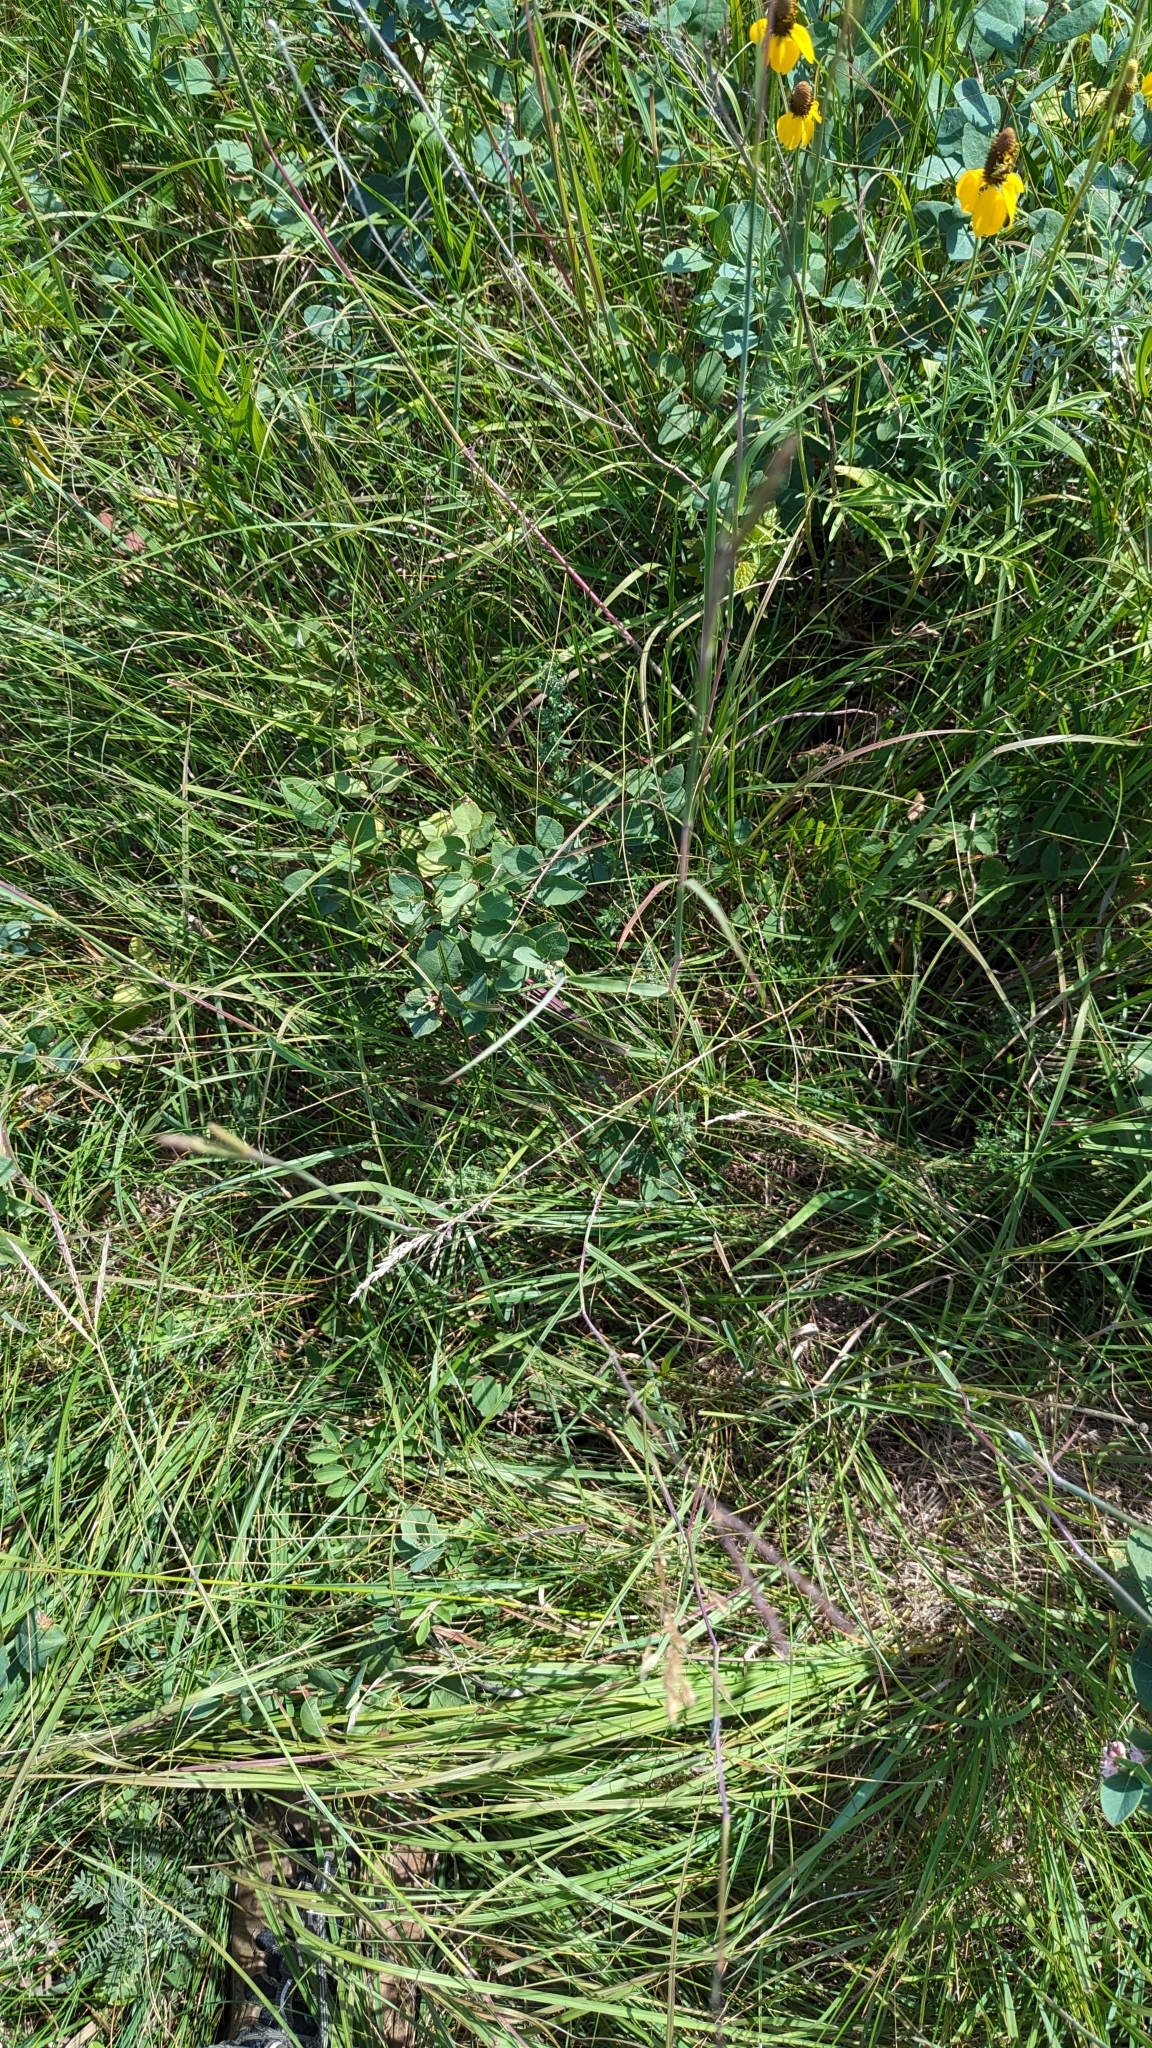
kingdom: Plantae
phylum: Tracheophyta
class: Liliopsida
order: Poales
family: Poaceae
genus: Andropogon
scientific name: Andropogon gerardi
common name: Big bluestem
